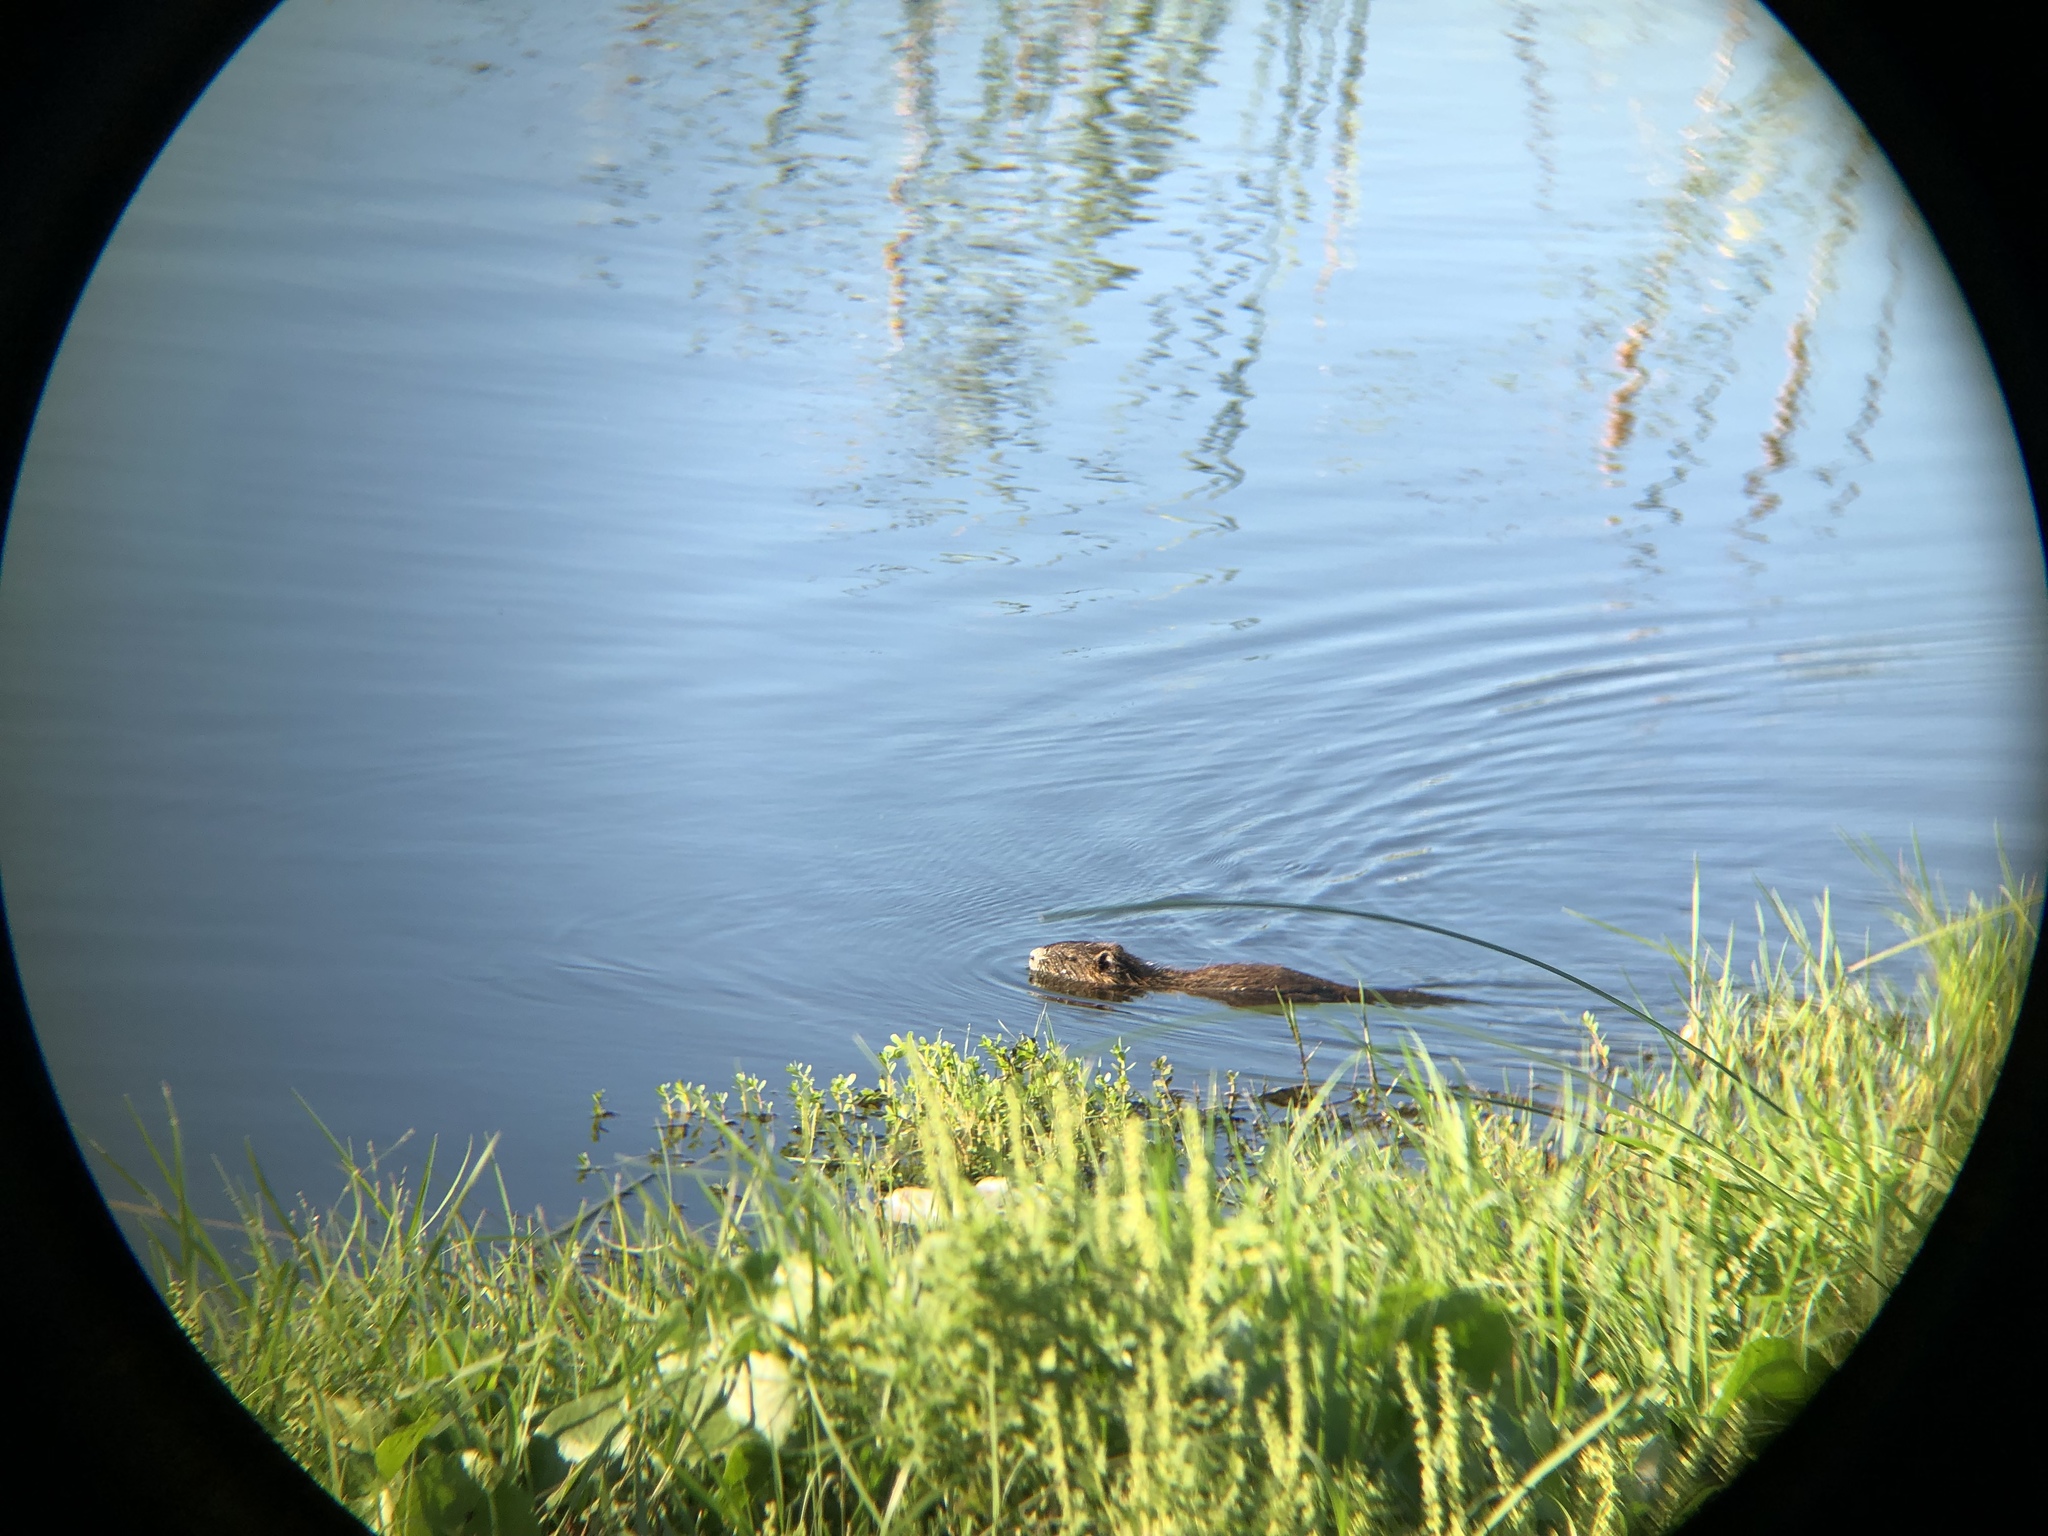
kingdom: Animalia
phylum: Chordata
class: Mammalia
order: Rodentia
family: Myocastoridae
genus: Myocastor
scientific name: Myocastor coypus
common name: Coypu
